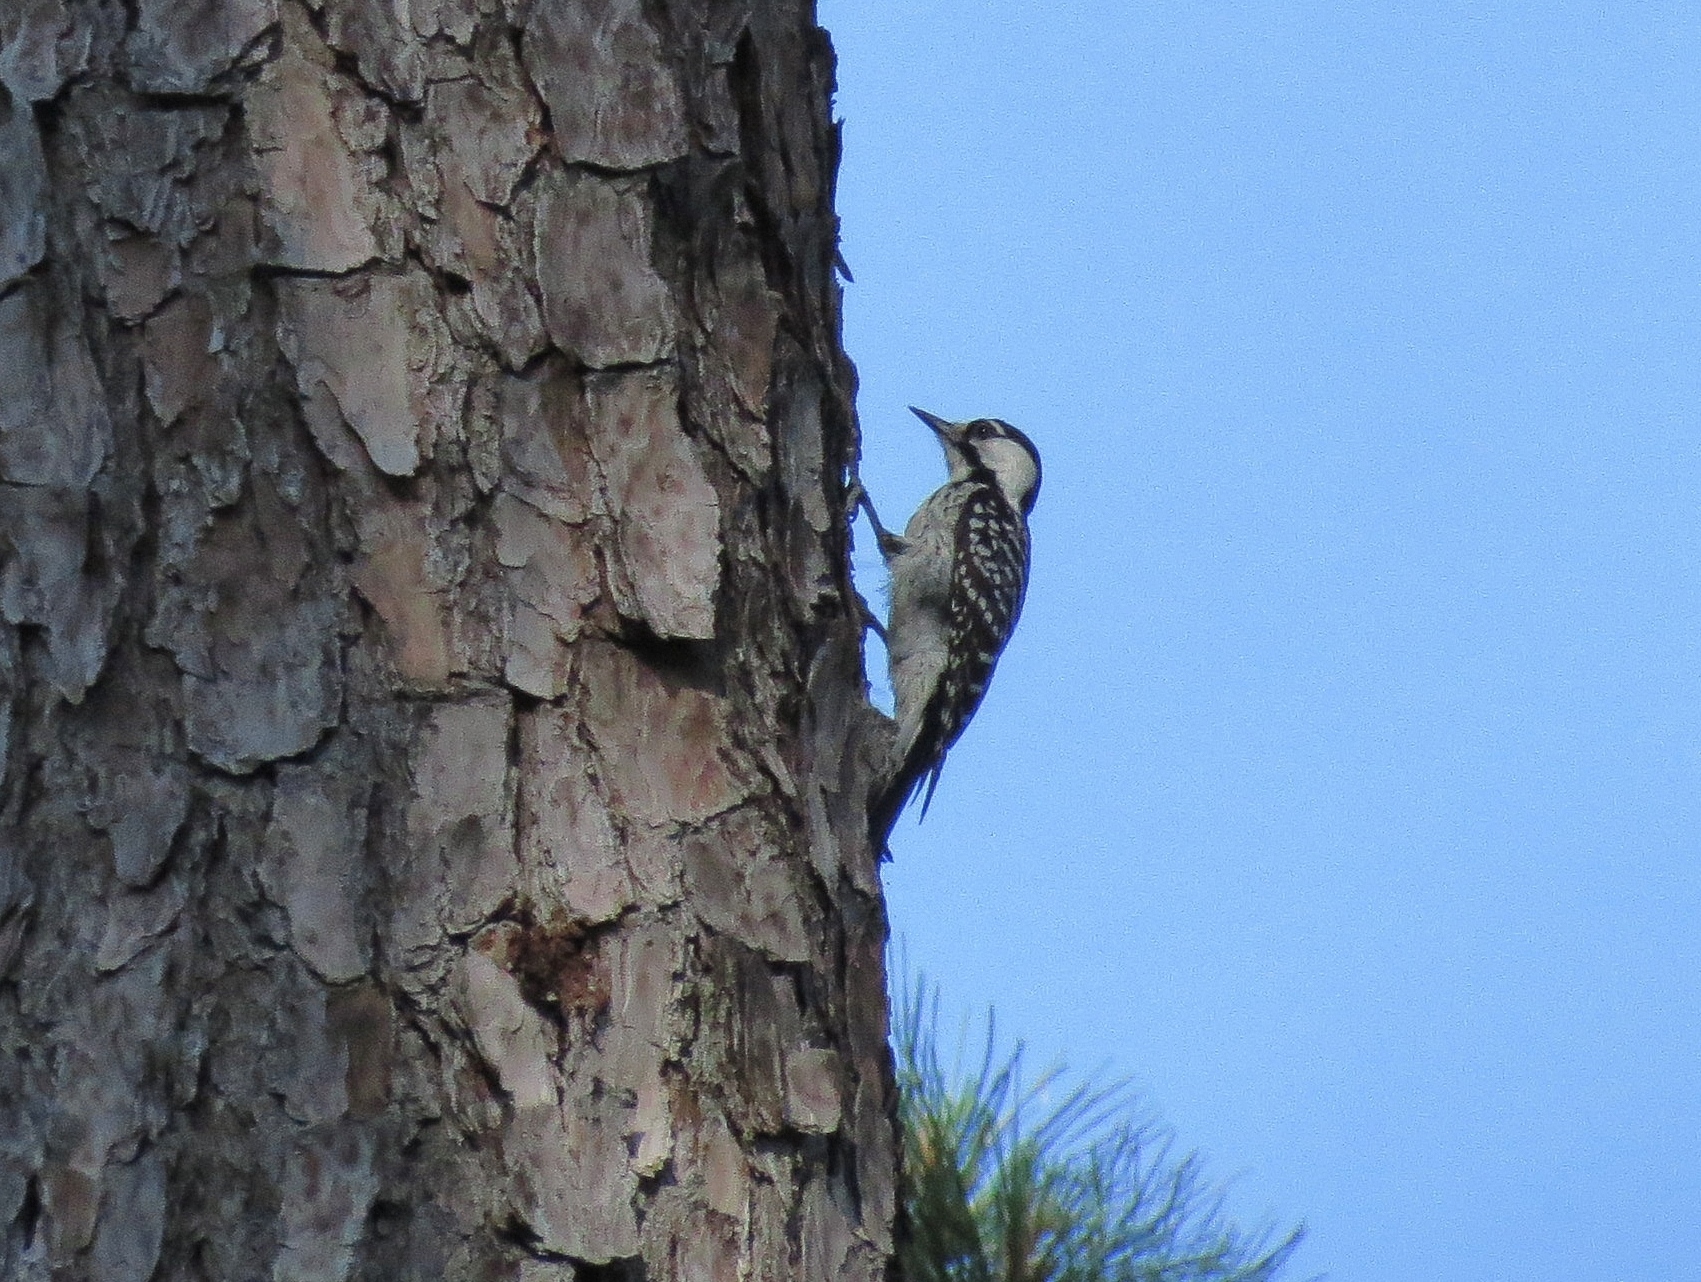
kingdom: Animalia
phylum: Chordata
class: Aves
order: Piciformes
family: Picidae
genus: Leuconotopicus
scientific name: Leuconotopicus borealis
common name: Red-cockaded woodpecker
